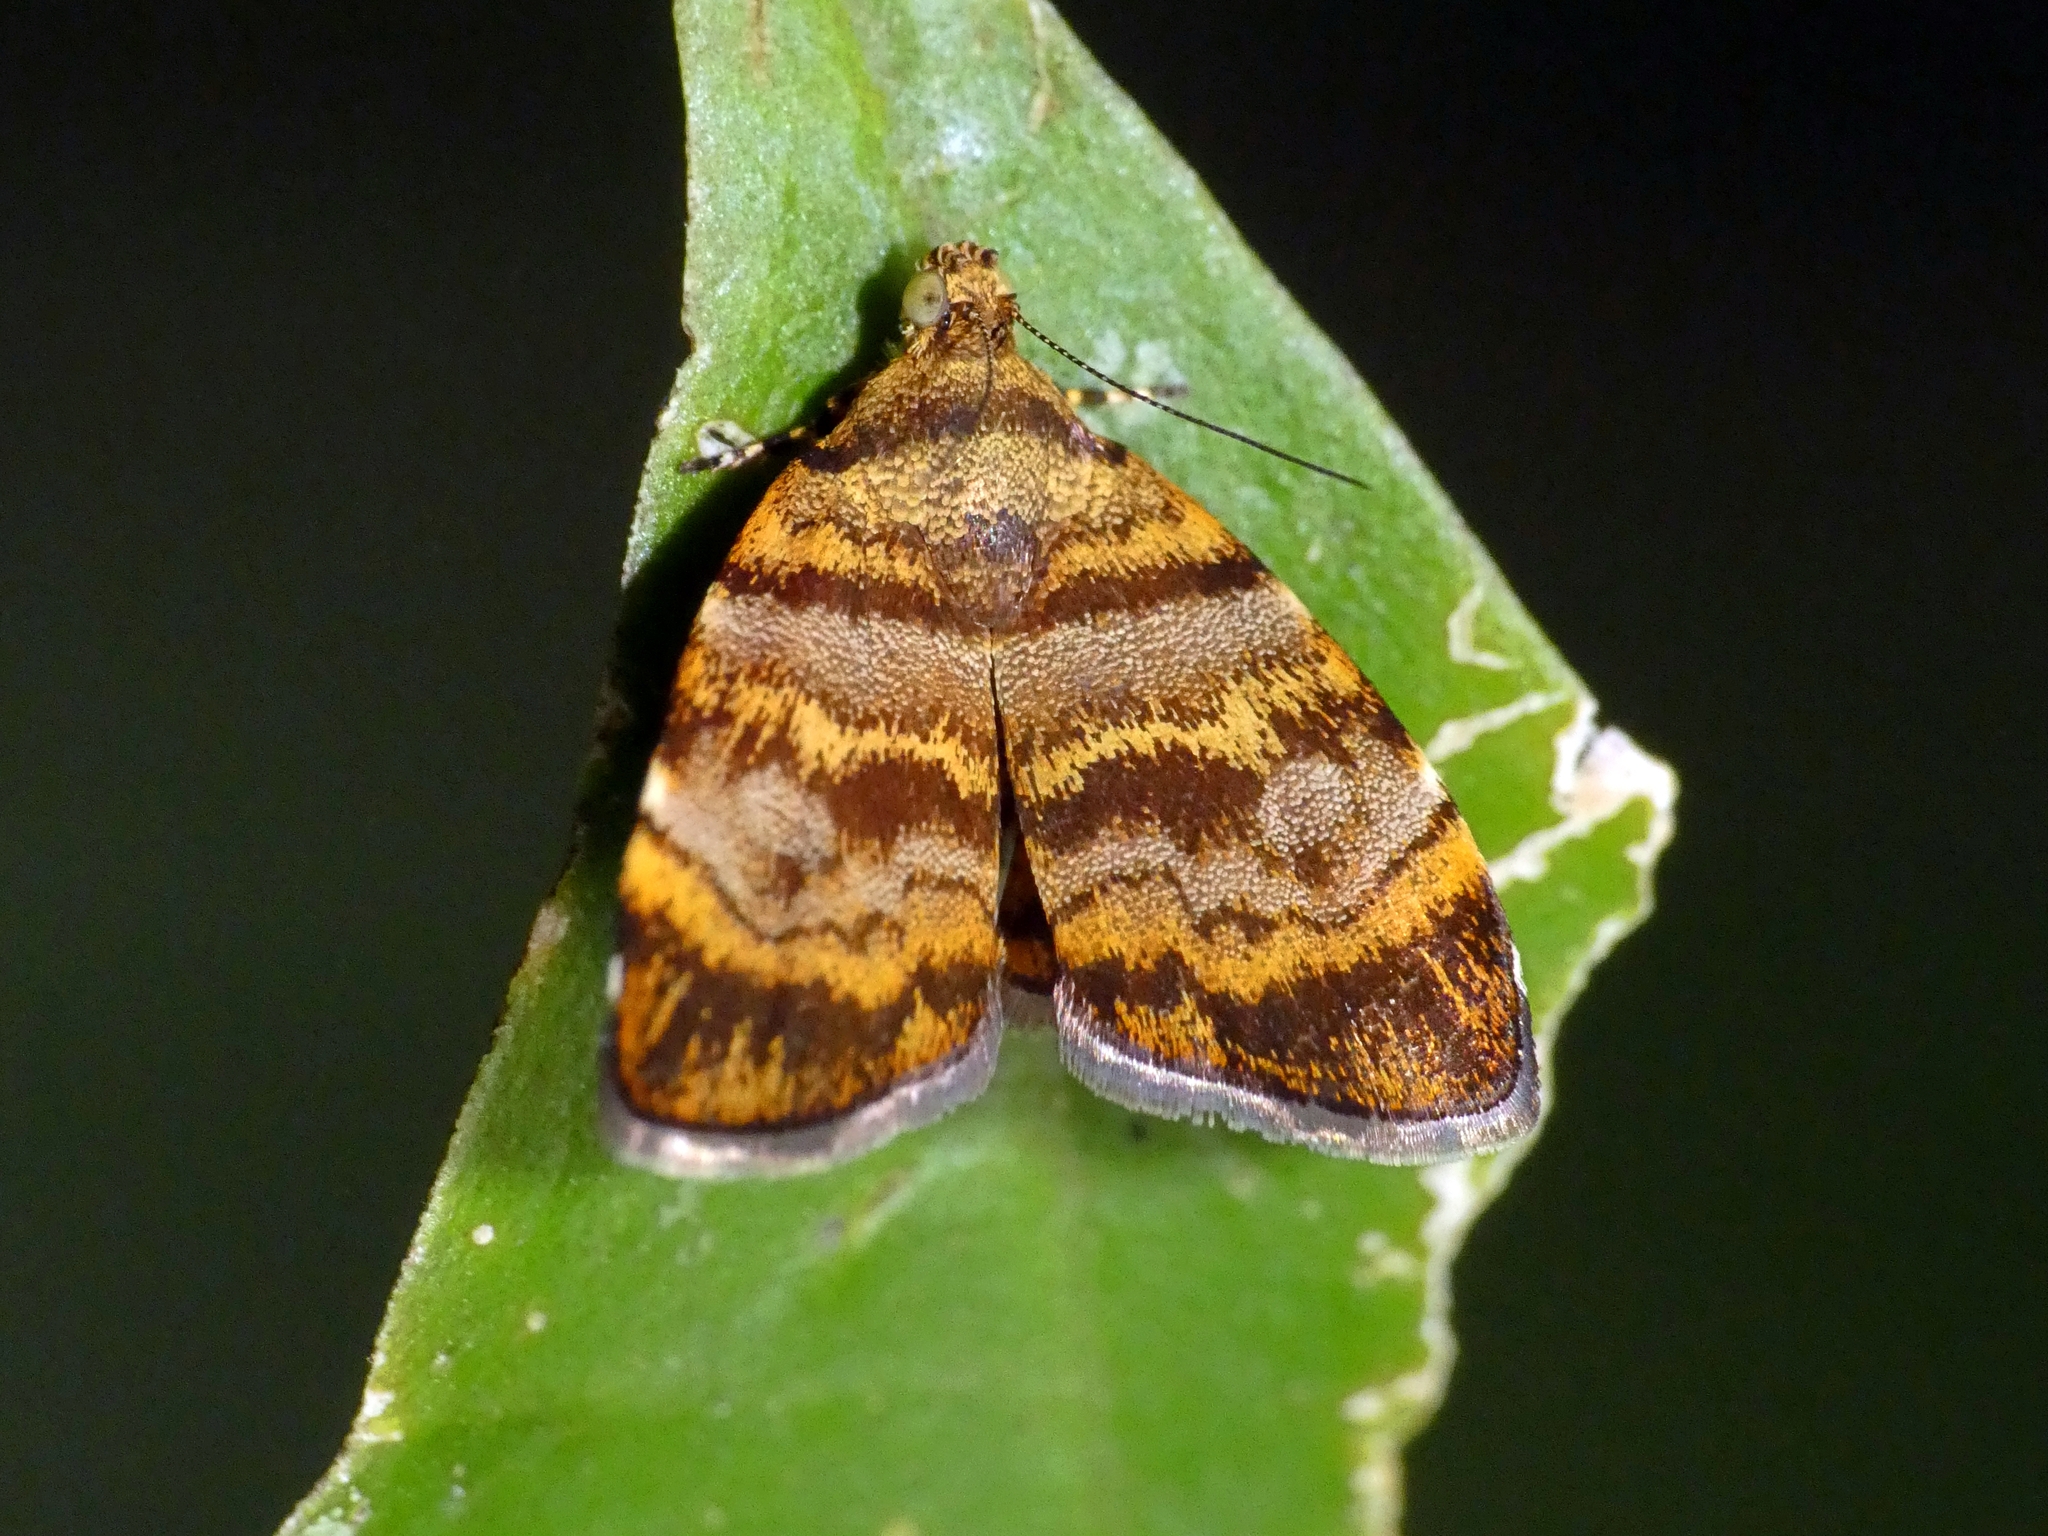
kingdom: Animalia
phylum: Arthropoda
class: Insecta
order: Lepidoptera
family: Choreutidae
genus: Choreutis
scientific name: Choreutis limonias
